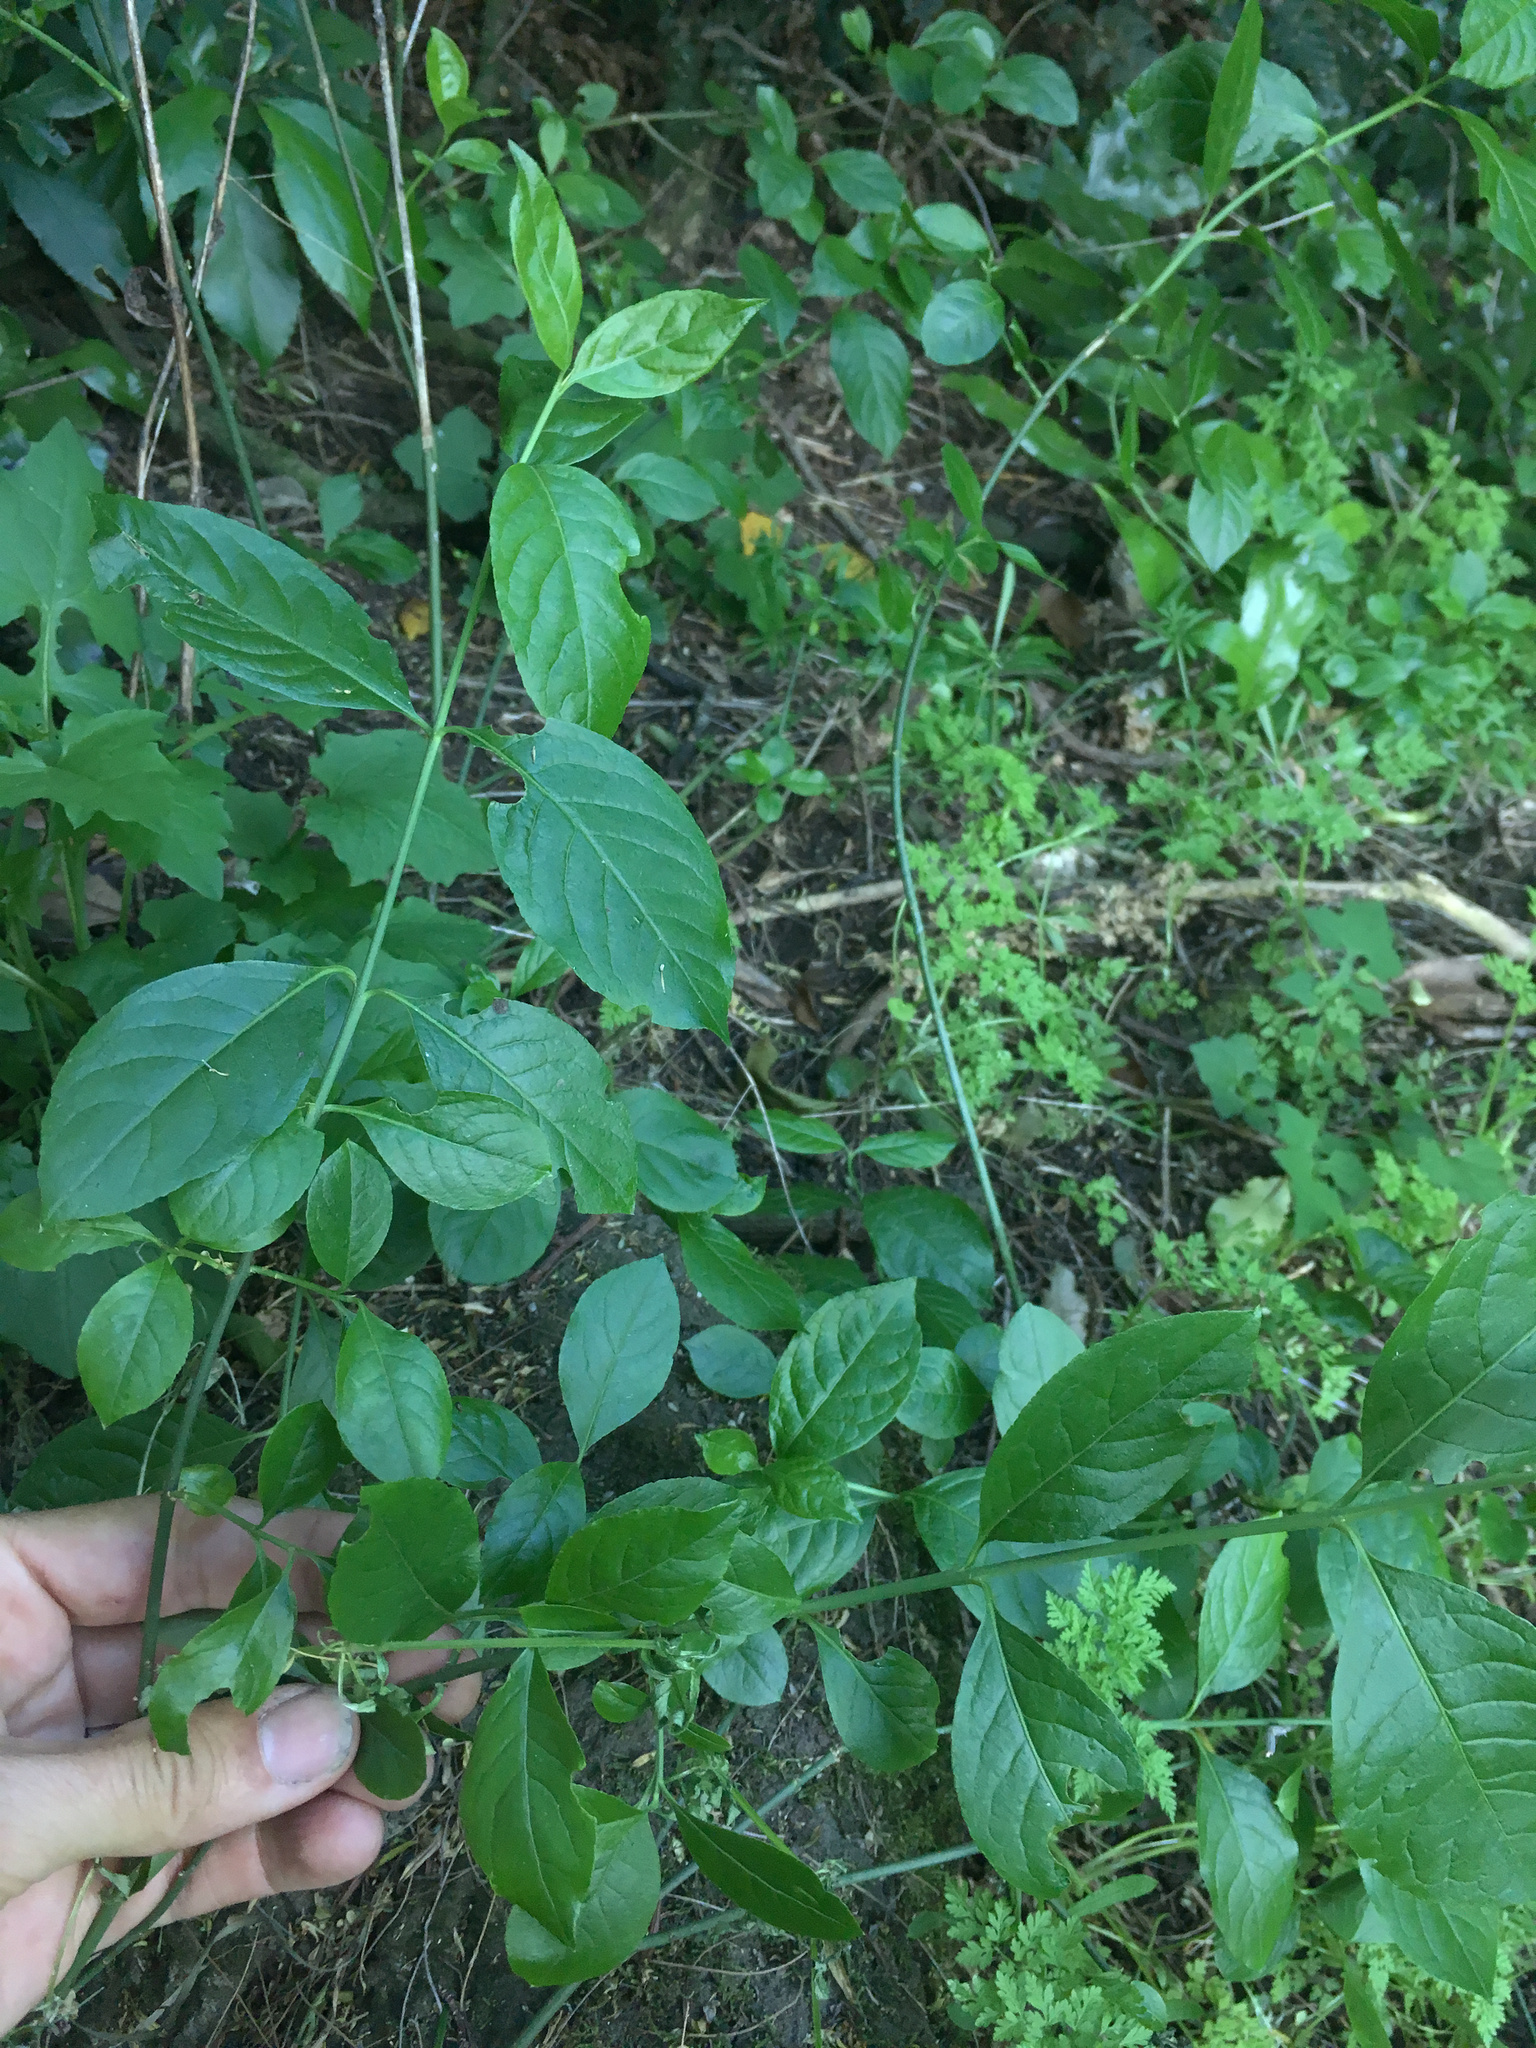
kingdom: Plantae
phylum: Tracheophyta
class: Magnoliopsida
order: Celastrales
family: Celastraceae
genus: Euonymus
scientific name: Euonymus europaeus
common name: Spindle
